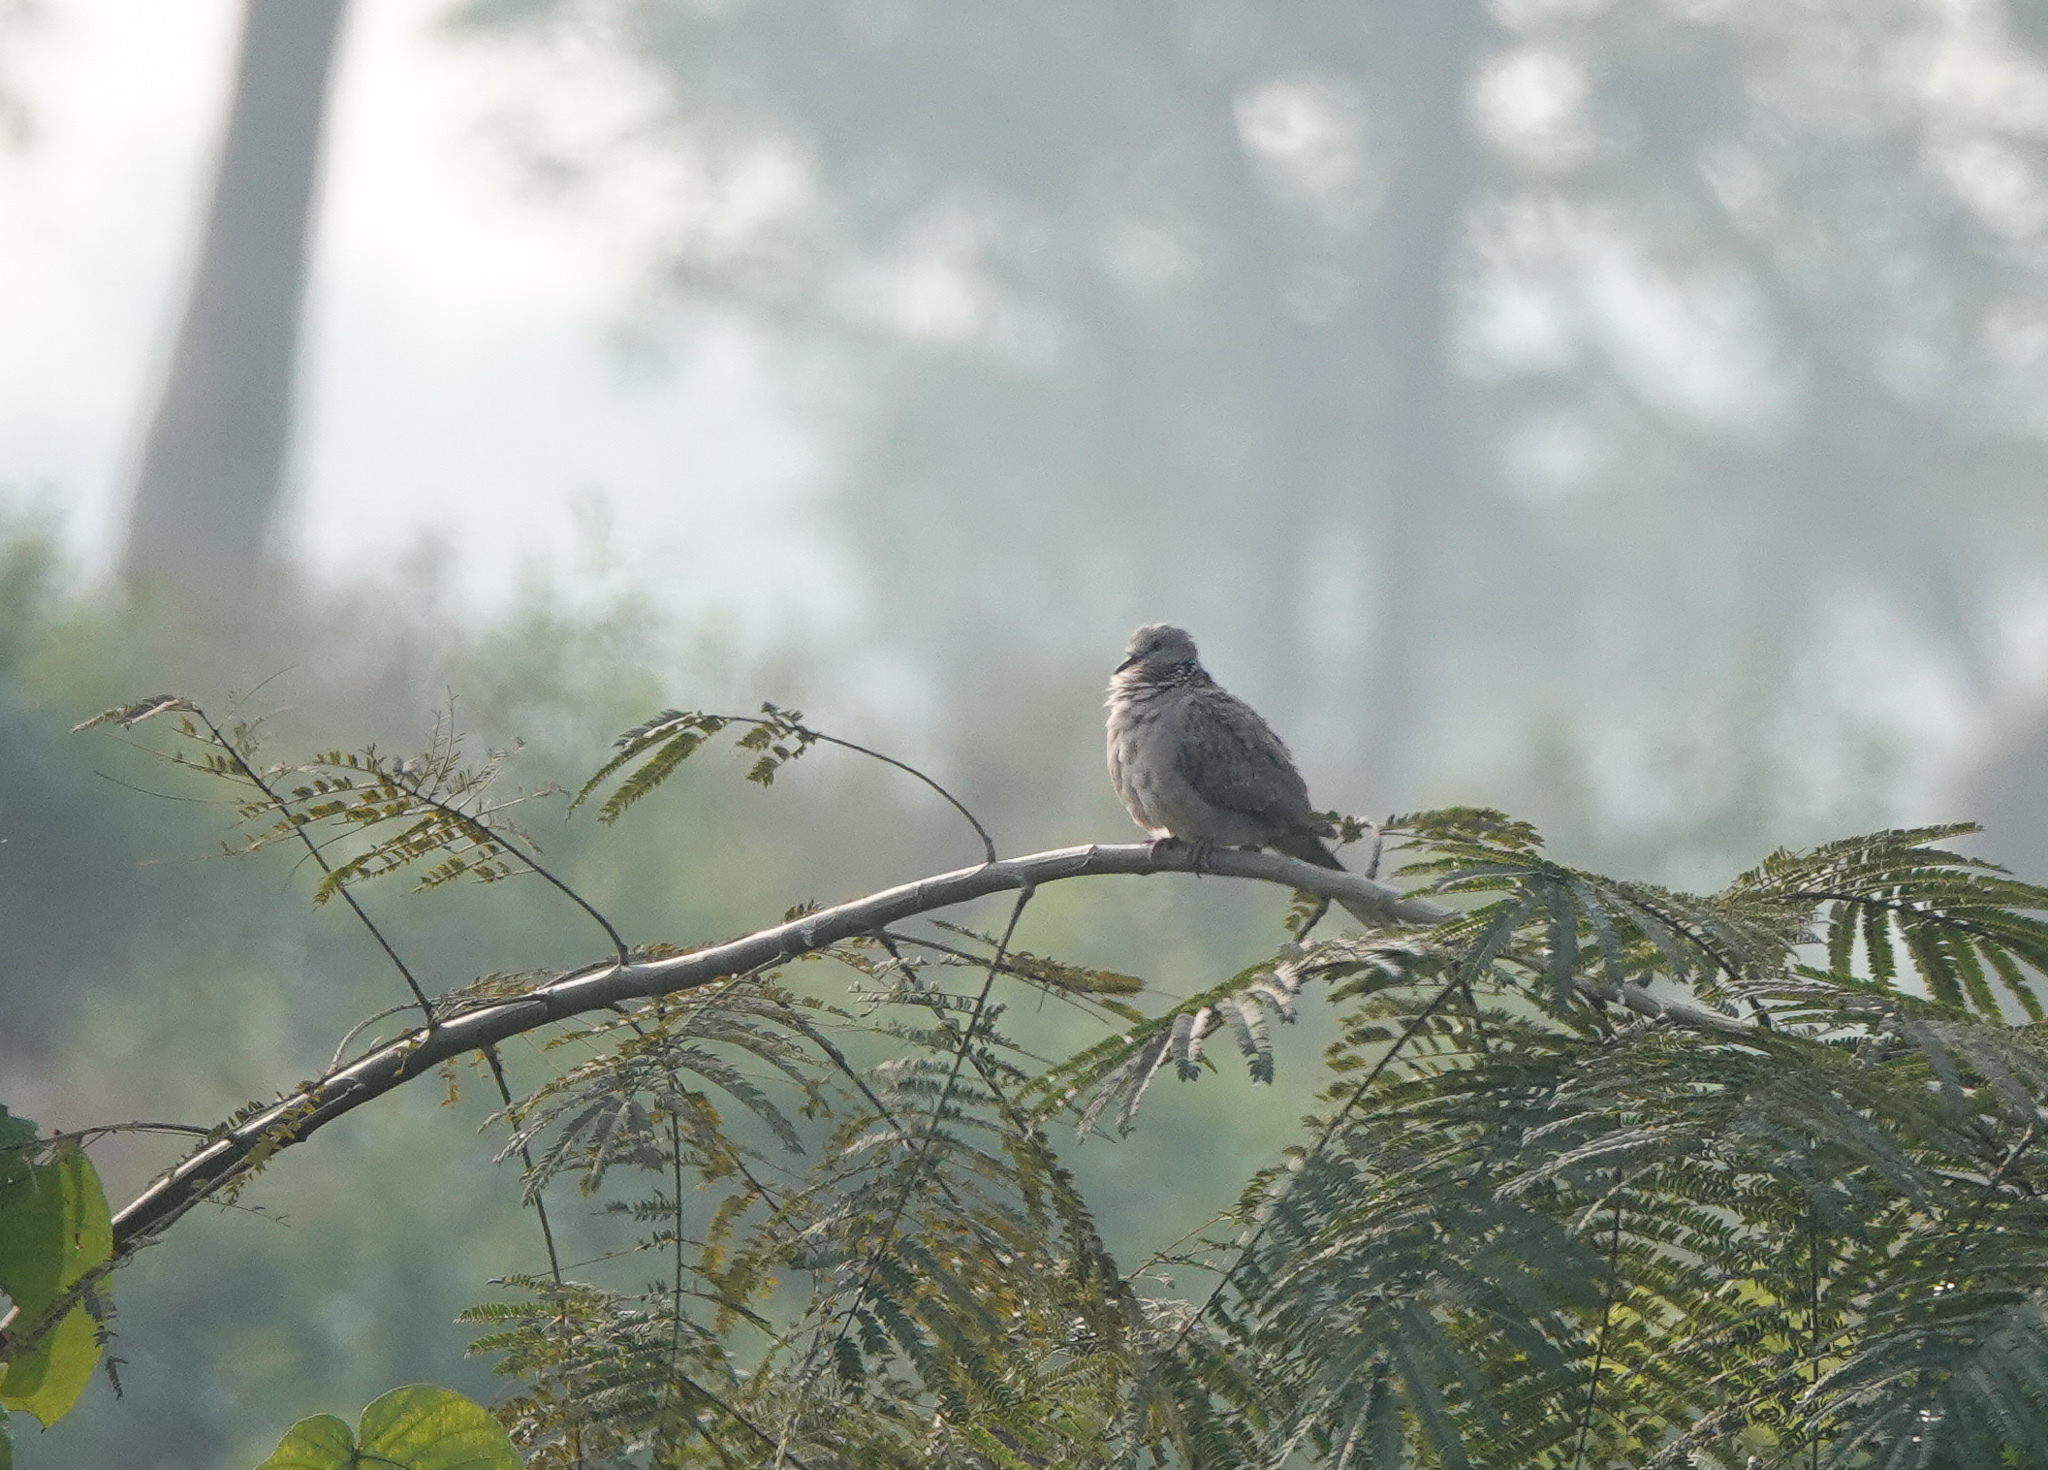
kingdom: Animalia
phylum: Chordata
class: Aves
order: Columbiformes
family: Columbidae
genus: Spilopelia
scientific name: Spilopelia chinensis
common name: Spotted dove
